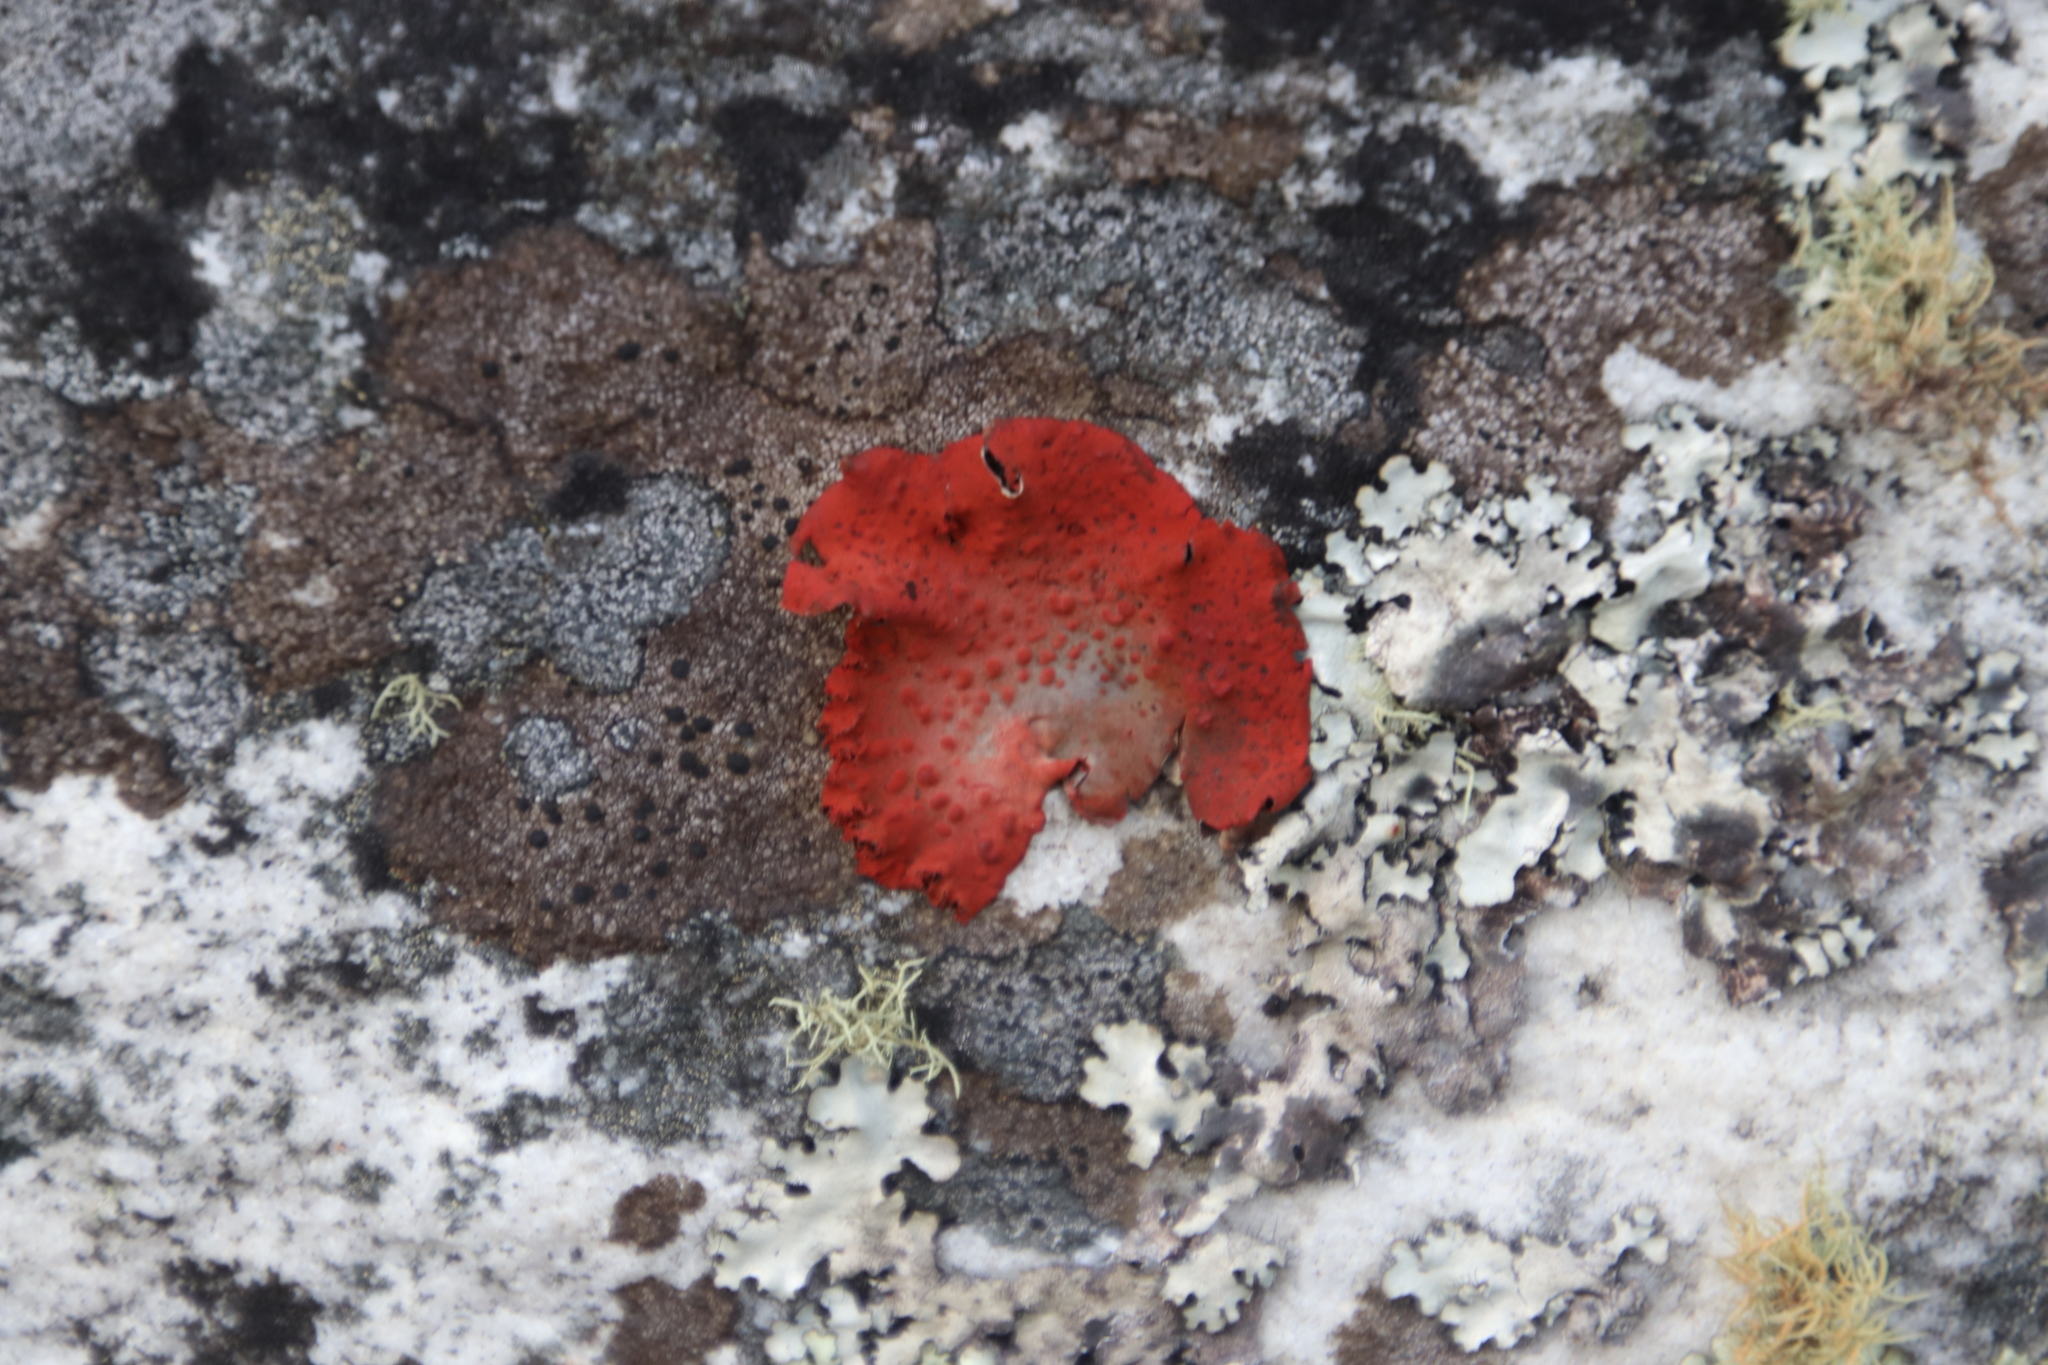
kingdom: Fungi
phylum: Ascomycota
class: Lecanoromycetes
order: Umbilicariales
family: Umbilicariaceae
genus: Lasallia
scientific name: Lasallia rubiginosa
